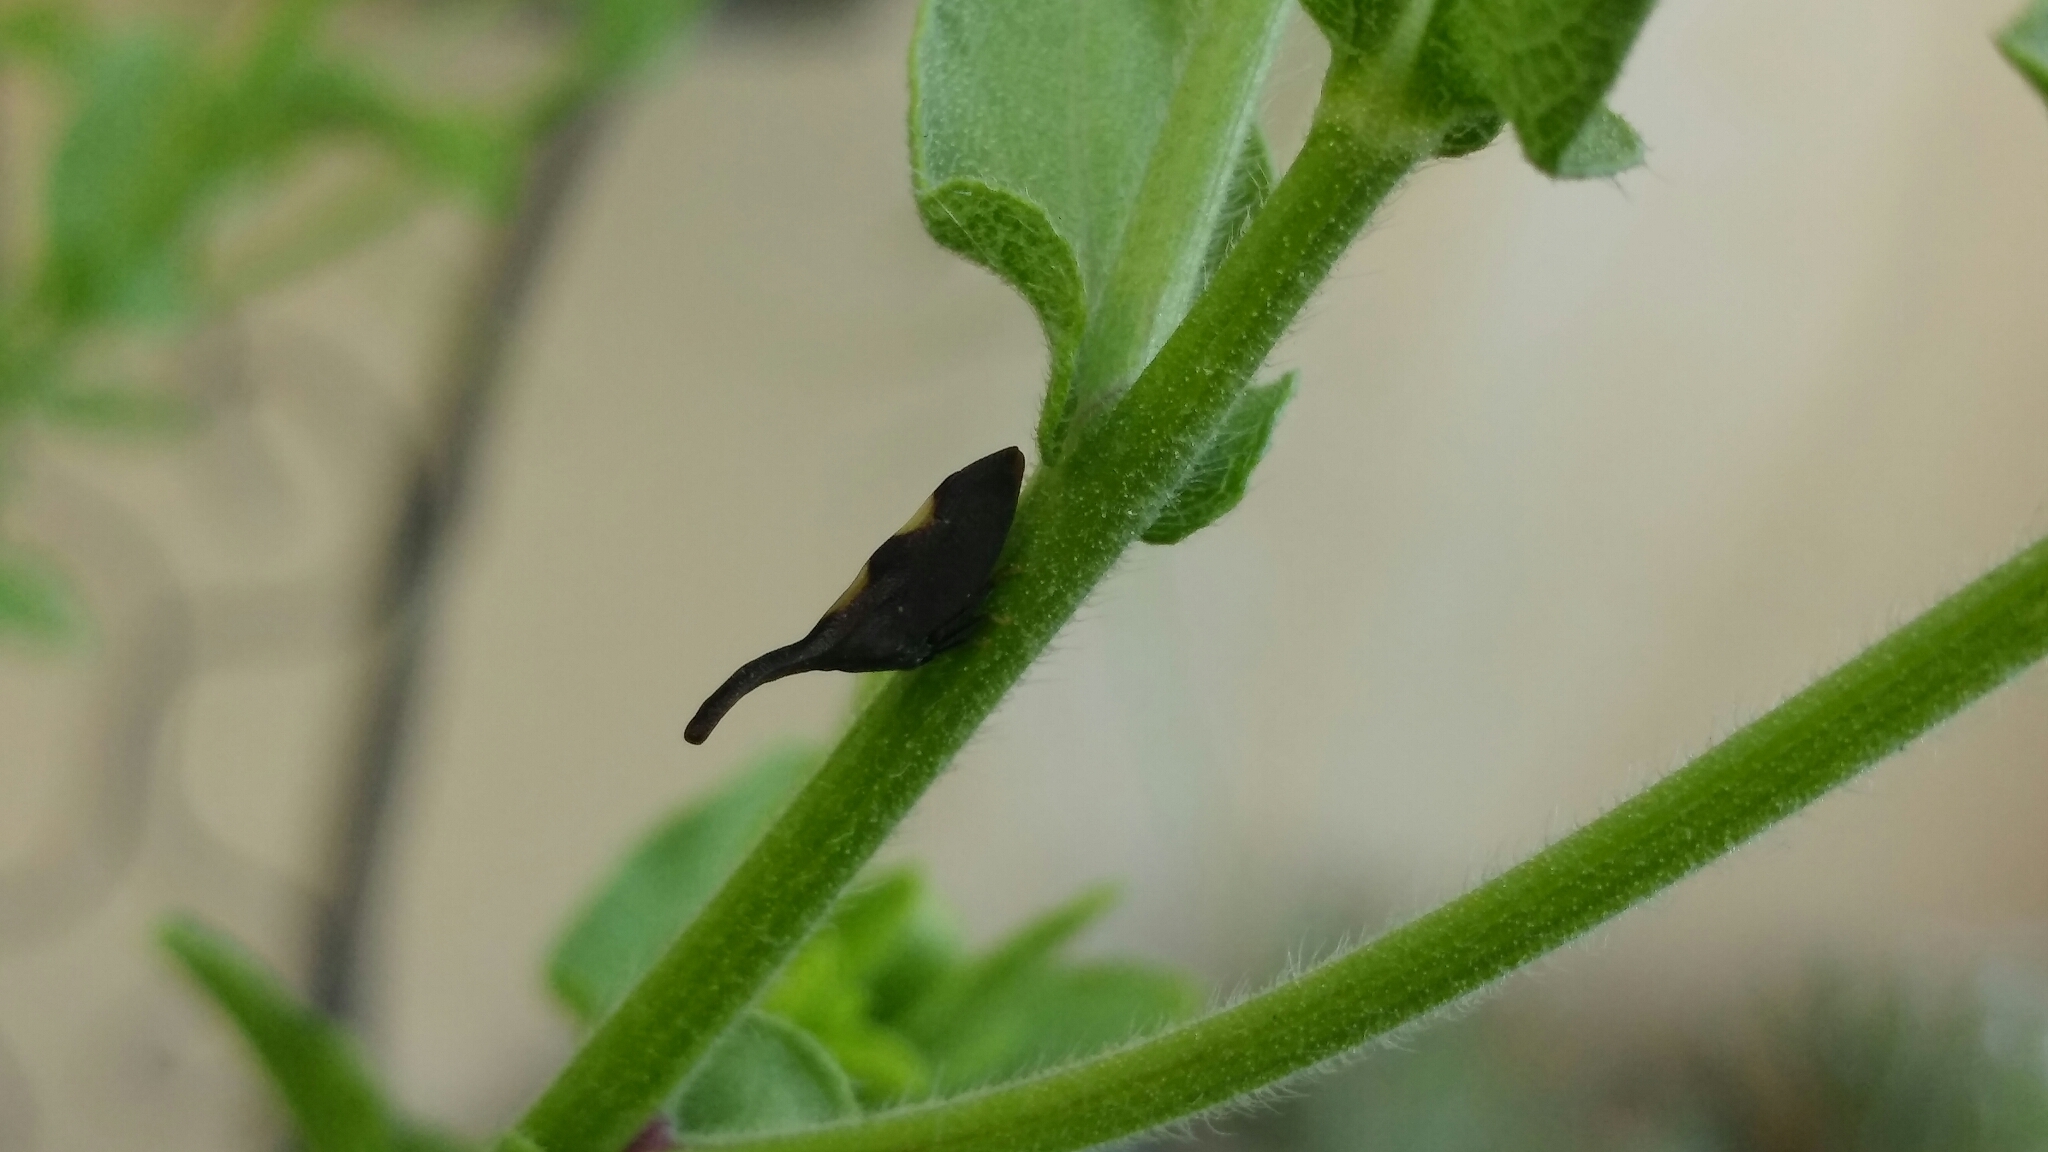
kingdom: Animalia
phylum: Arthropoda
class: Insecta
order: Hemiptera
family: Membracidae
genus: Enchenopa
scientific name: Enchenopa
